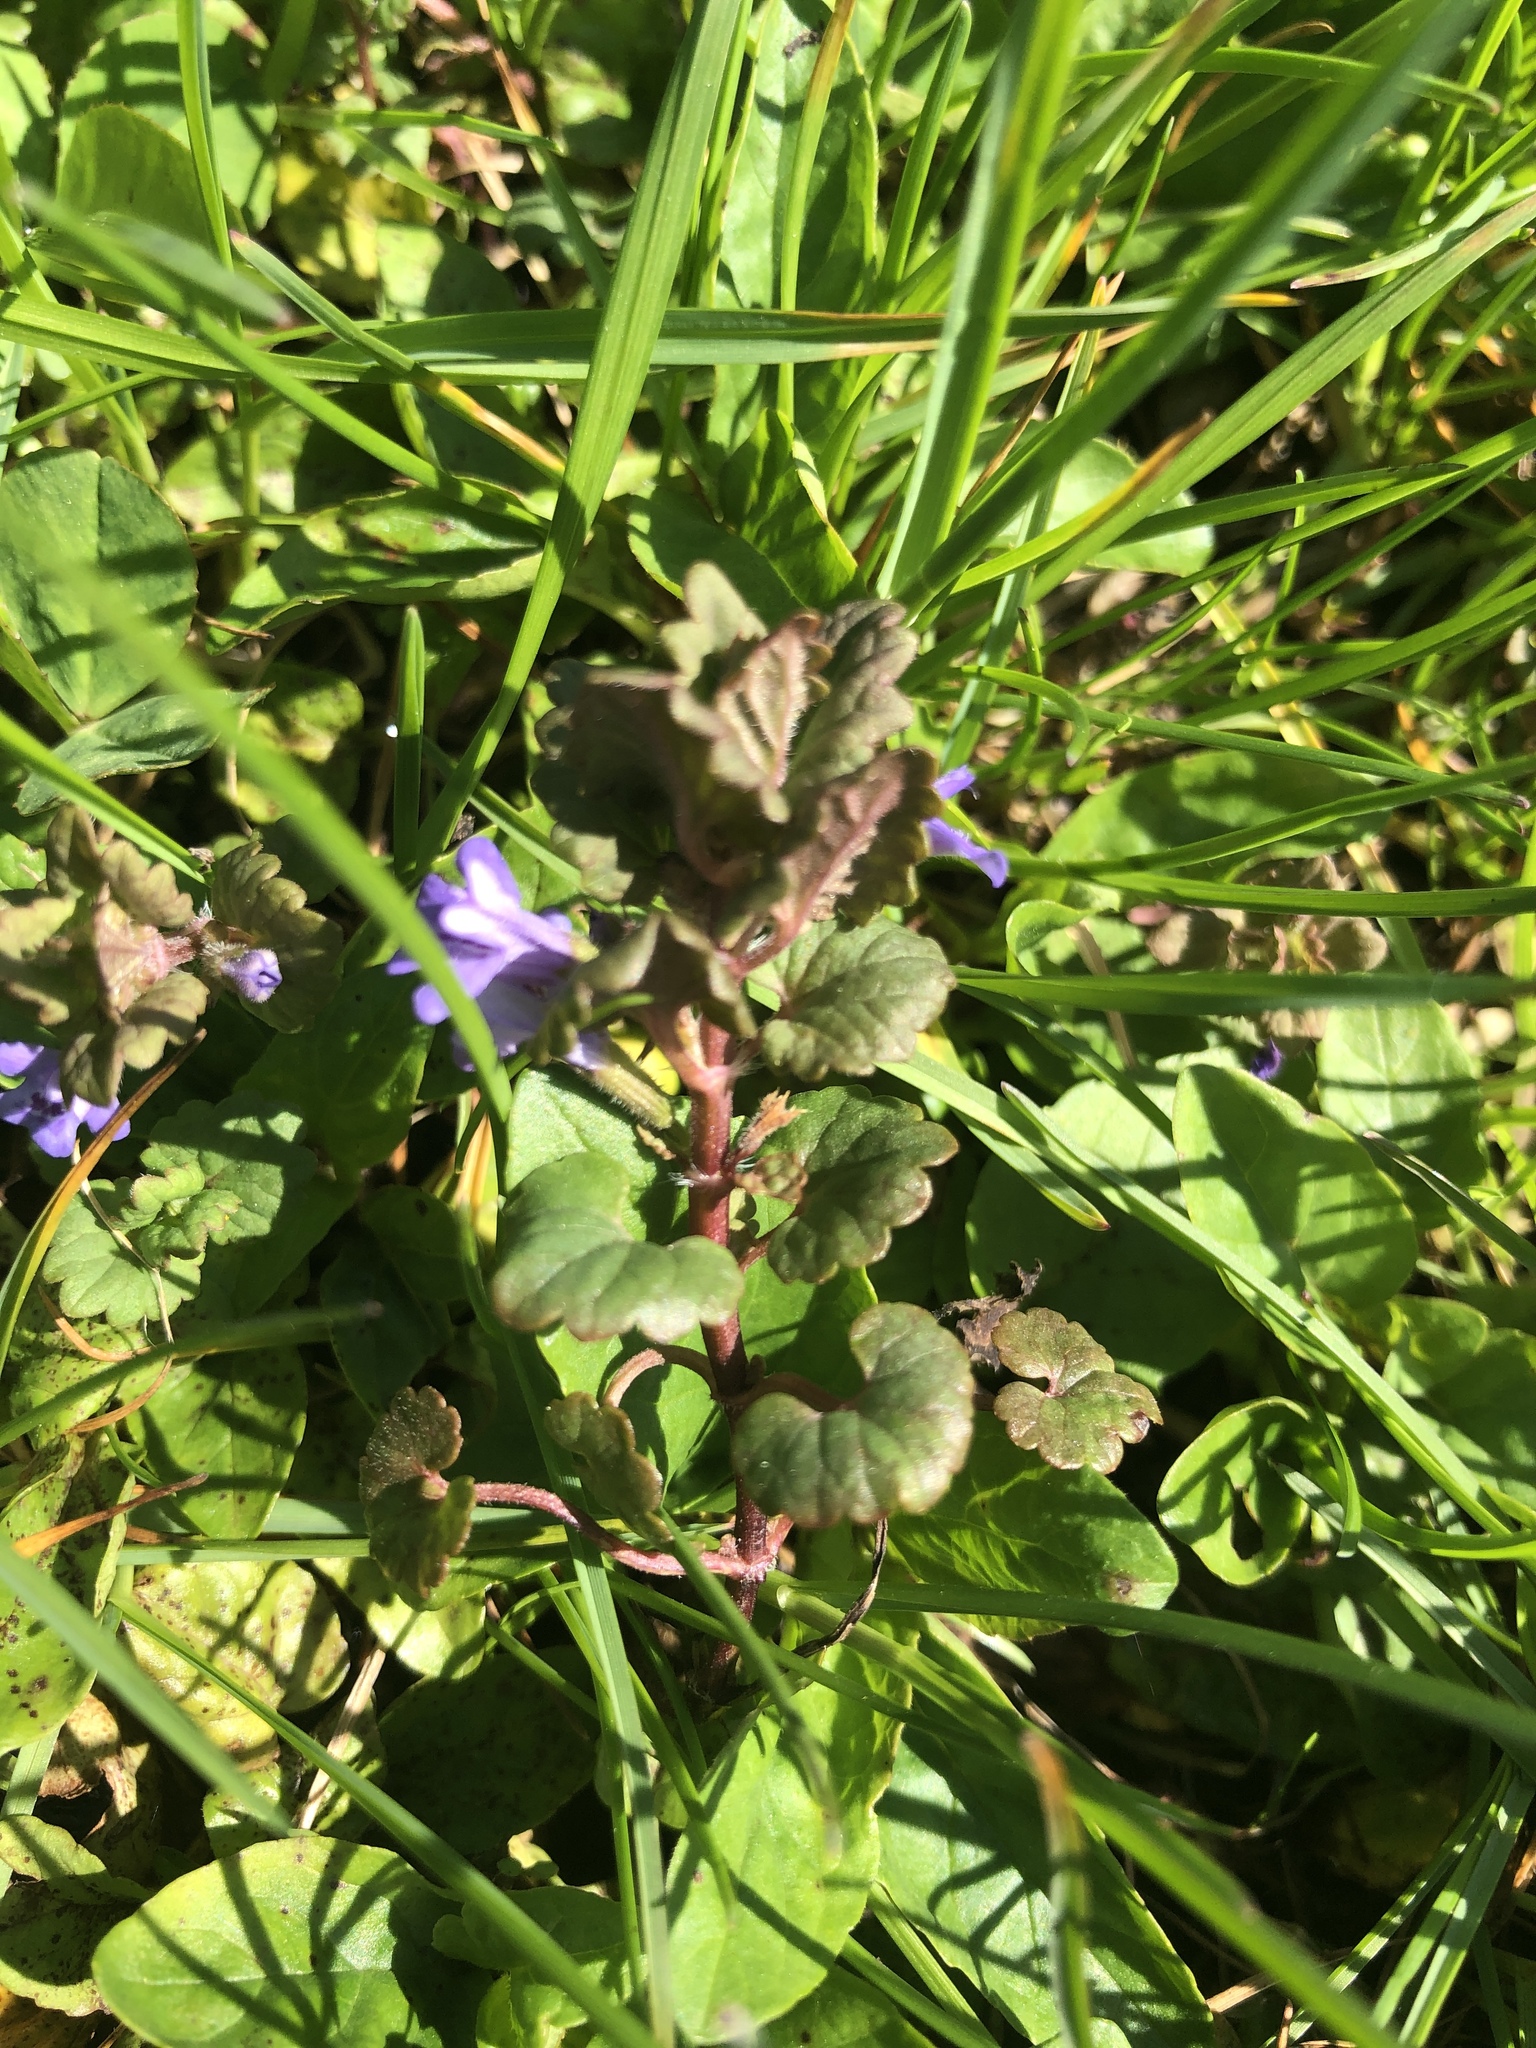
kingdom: Plantae
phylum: Tracheophyta
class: Magnoliopsida
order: Lamiales
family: Lamiaceae
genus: Glechoma
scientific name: Glechoma hederacea
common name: Ground ivy
